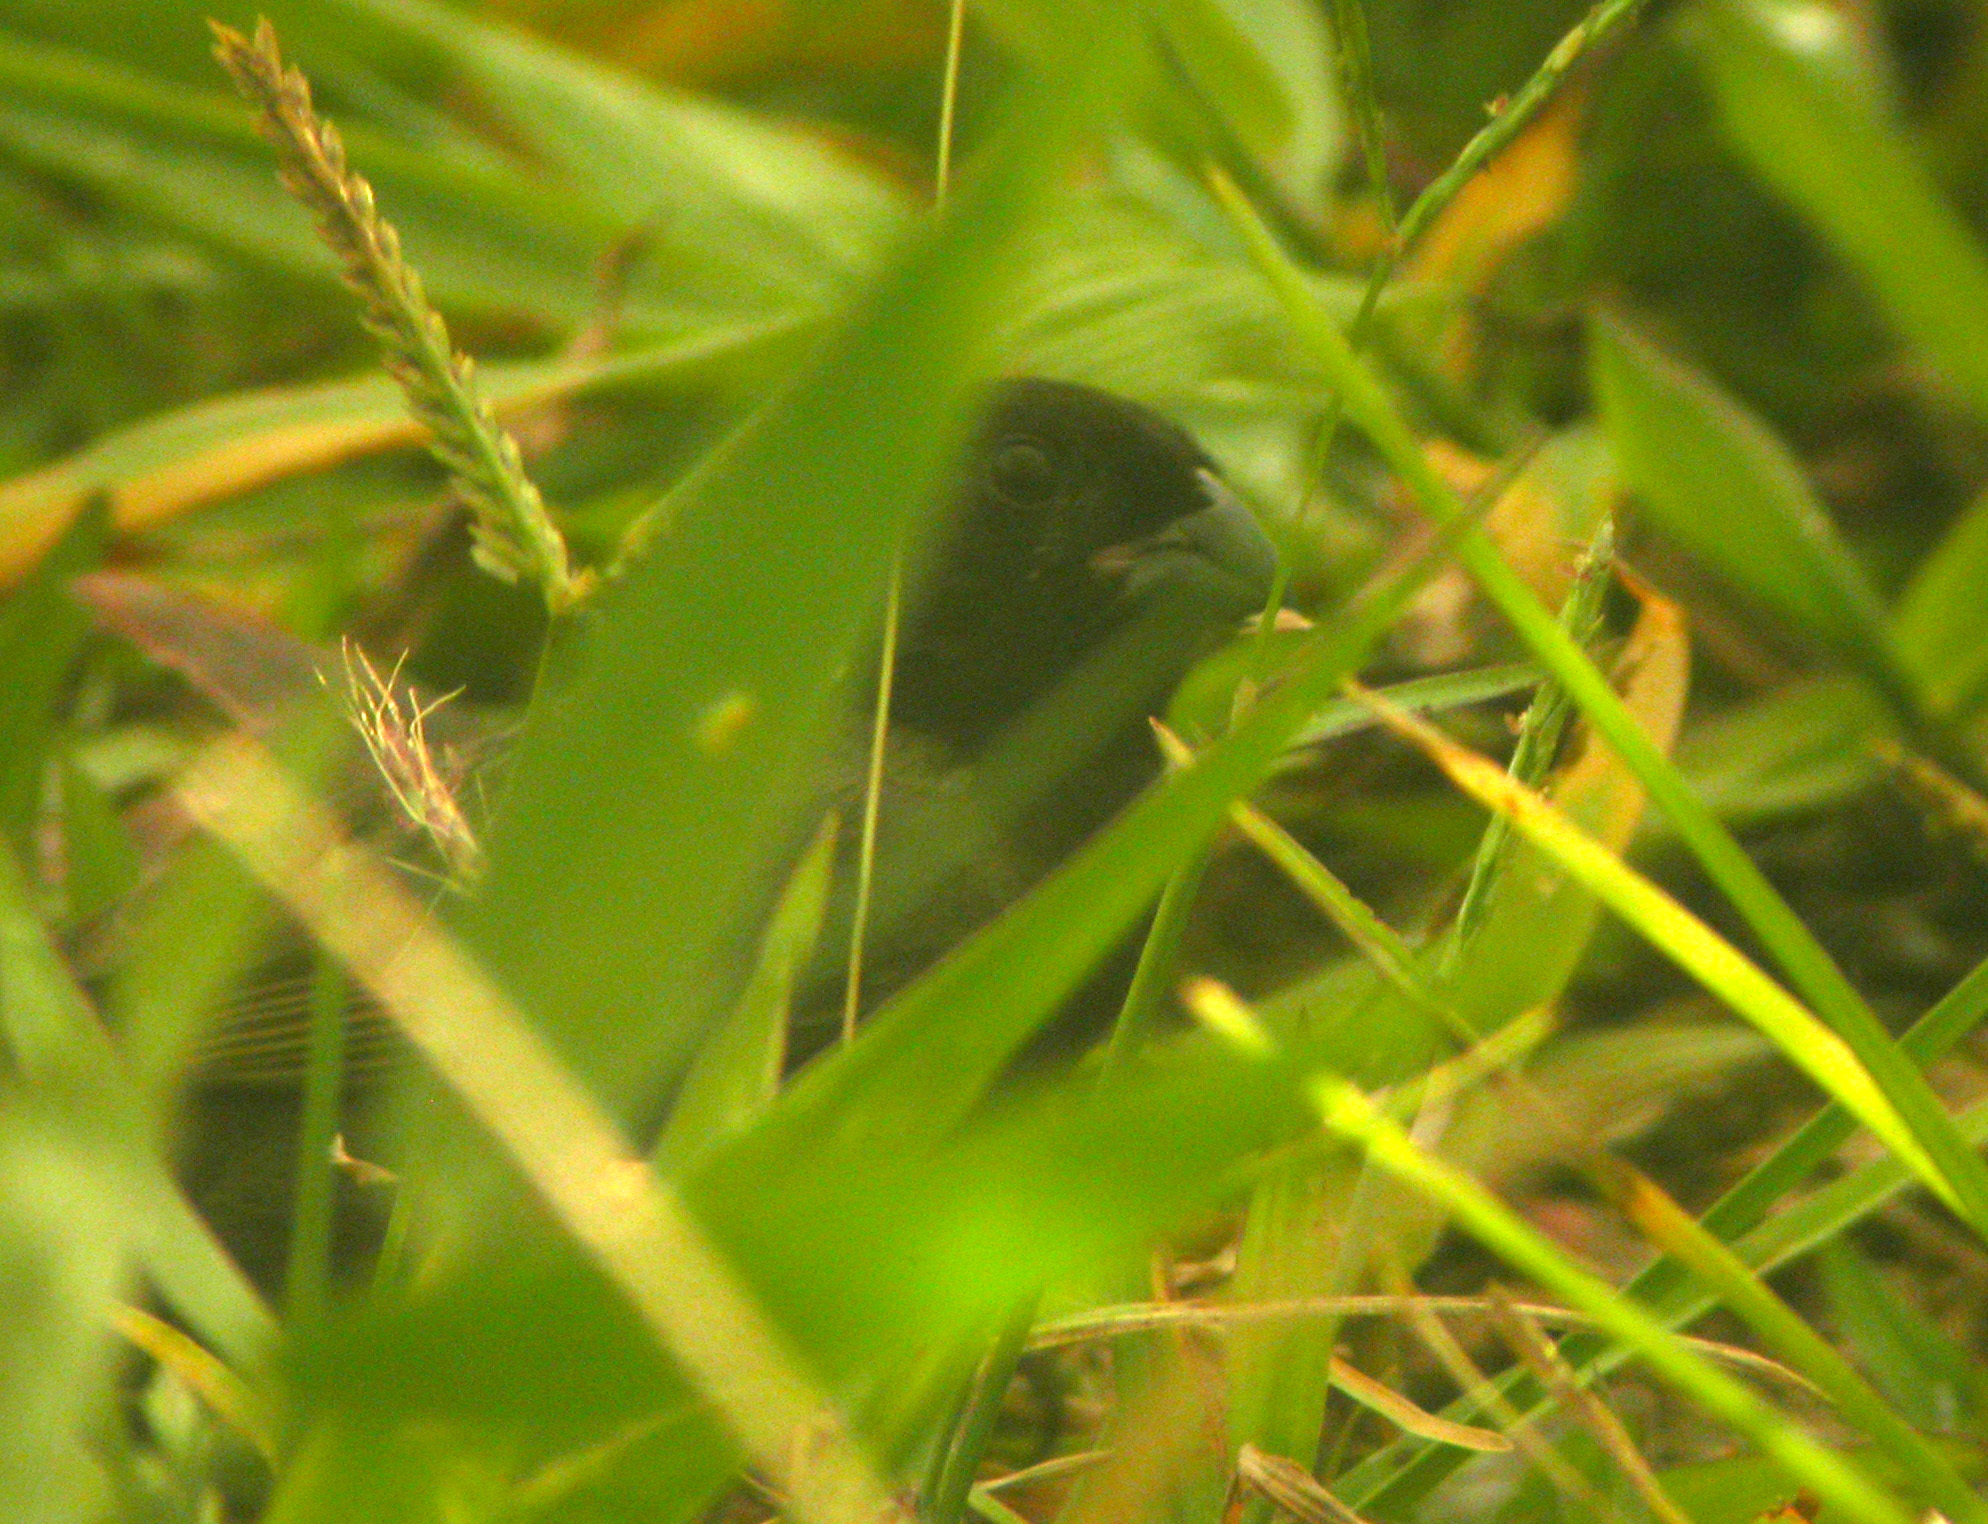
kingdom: Animalia
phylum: Chordata
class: Aves
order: Passeriformes
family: Thraupidae
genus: Melanospiza
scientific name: Melanospiza bicolor
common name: Black-faced grassquit
